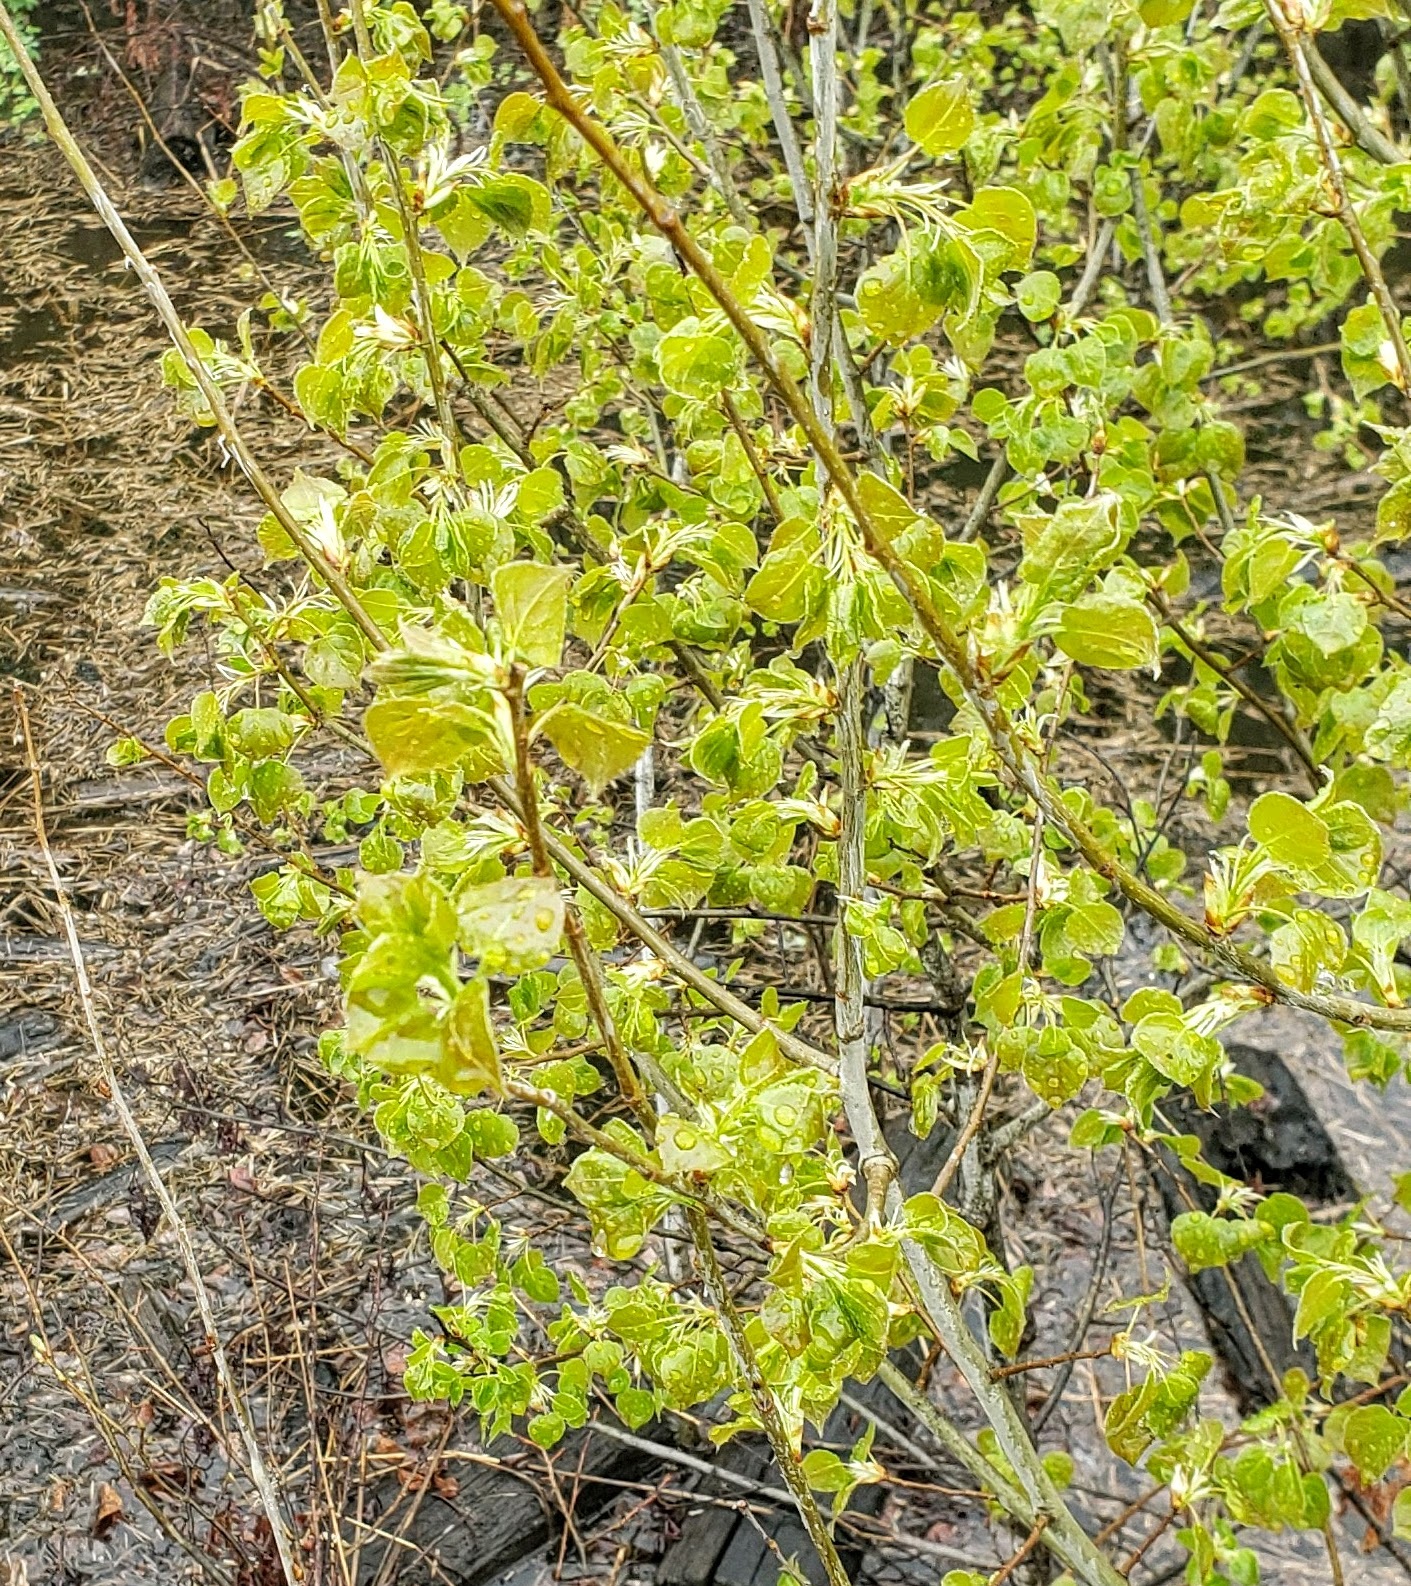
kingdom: Plantae
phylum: Tracheophyta
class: Magnoliopsida
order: Malpighiales
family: Salicaceae
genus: Populus
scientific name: Populus tremuloides
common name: Quaking aspen
